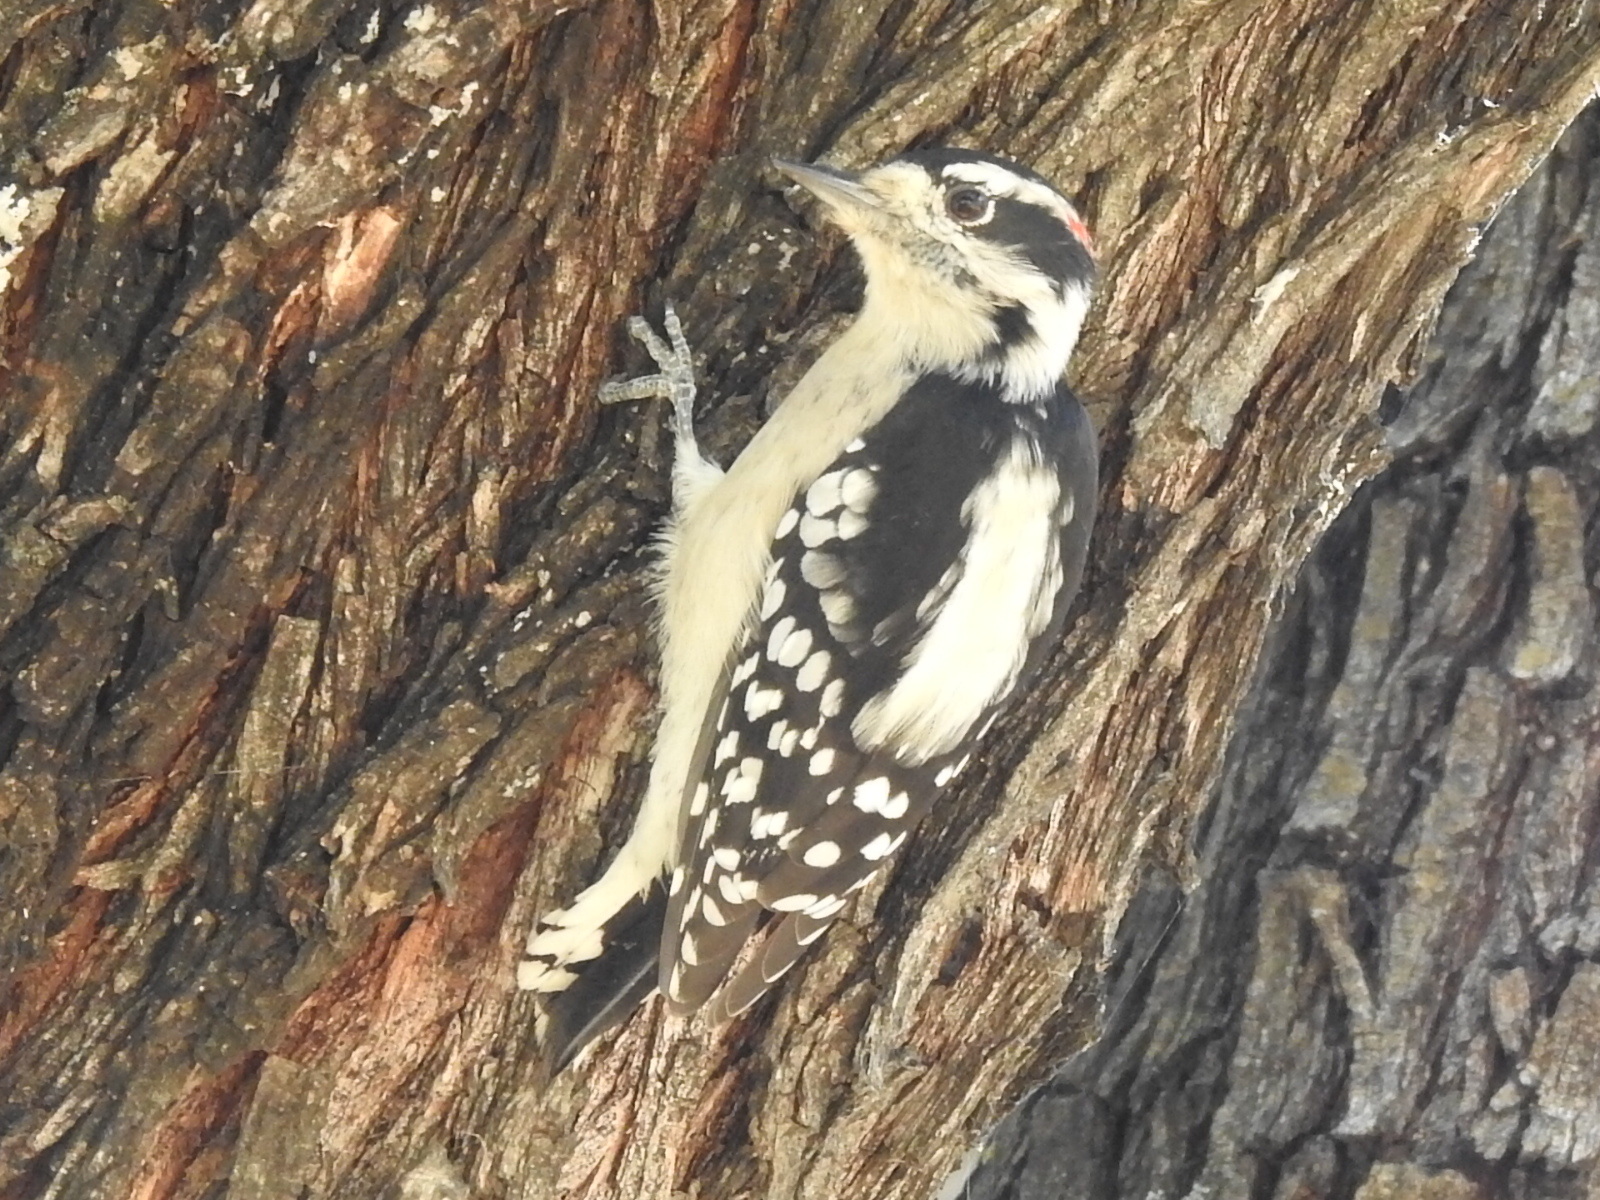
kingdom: Animalia
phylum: Chordata
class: Aves
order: Piciformes
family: Picidae
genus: Dryobates
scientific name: Dryobates pubescens
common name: Downy woodpecker
